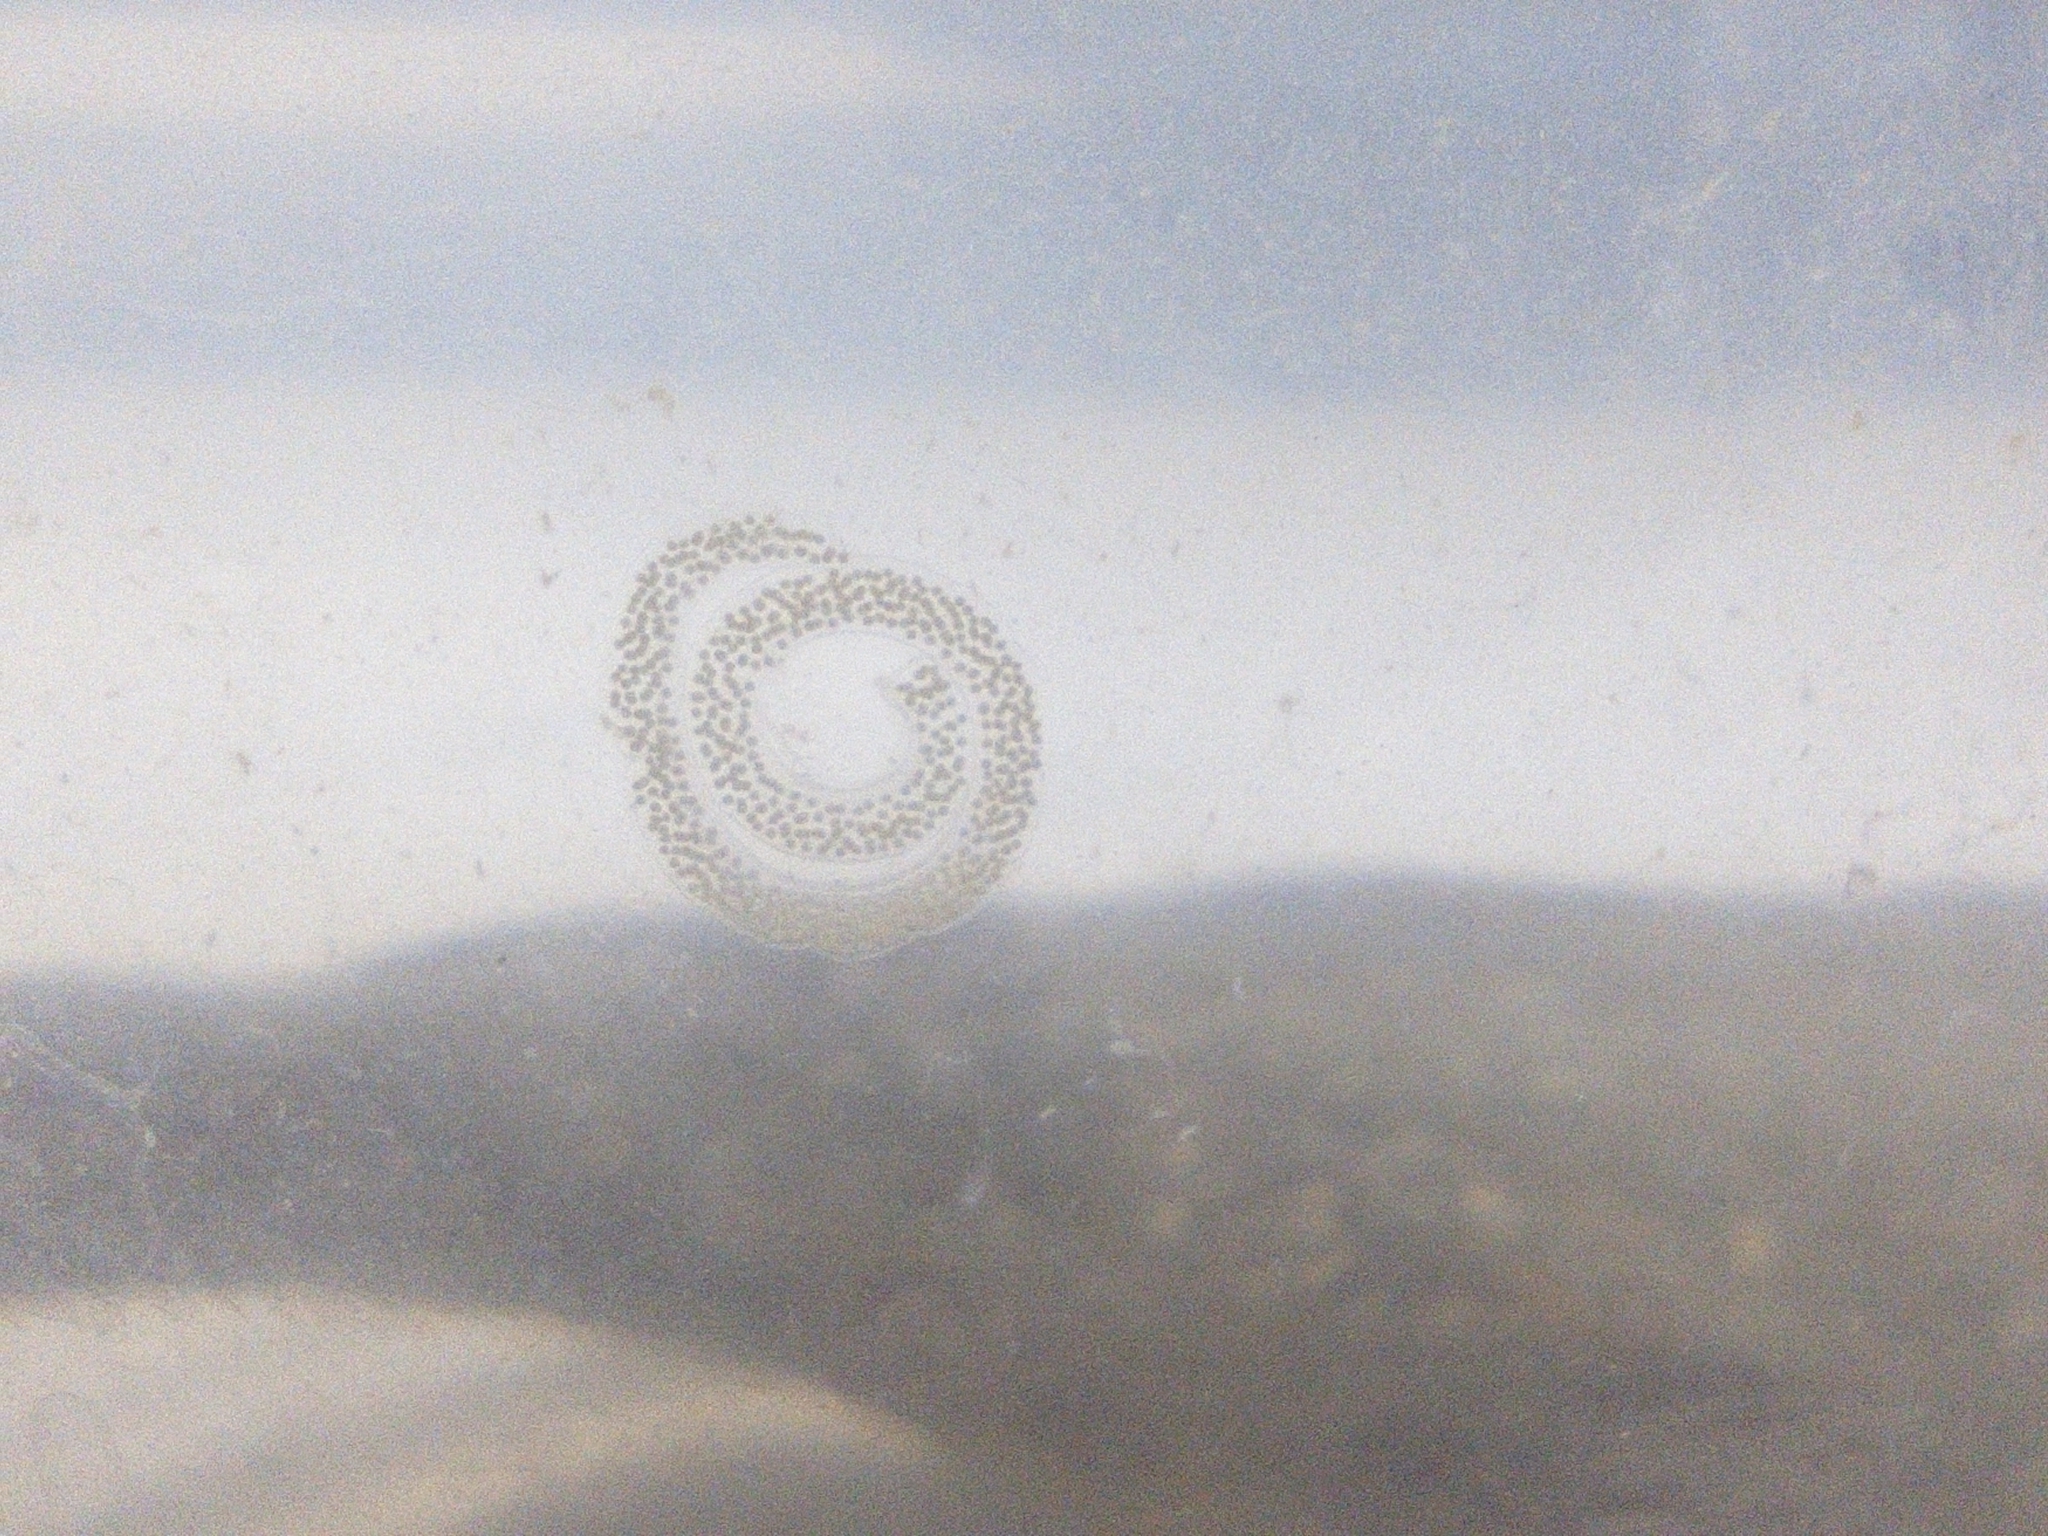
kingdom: Animalia
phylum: Mollusca
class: Gastropoda
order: Nudibranchia
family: Facelinidae
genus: Phidiana
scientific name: Phidiana lynceus
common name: Lynx nudibranch
